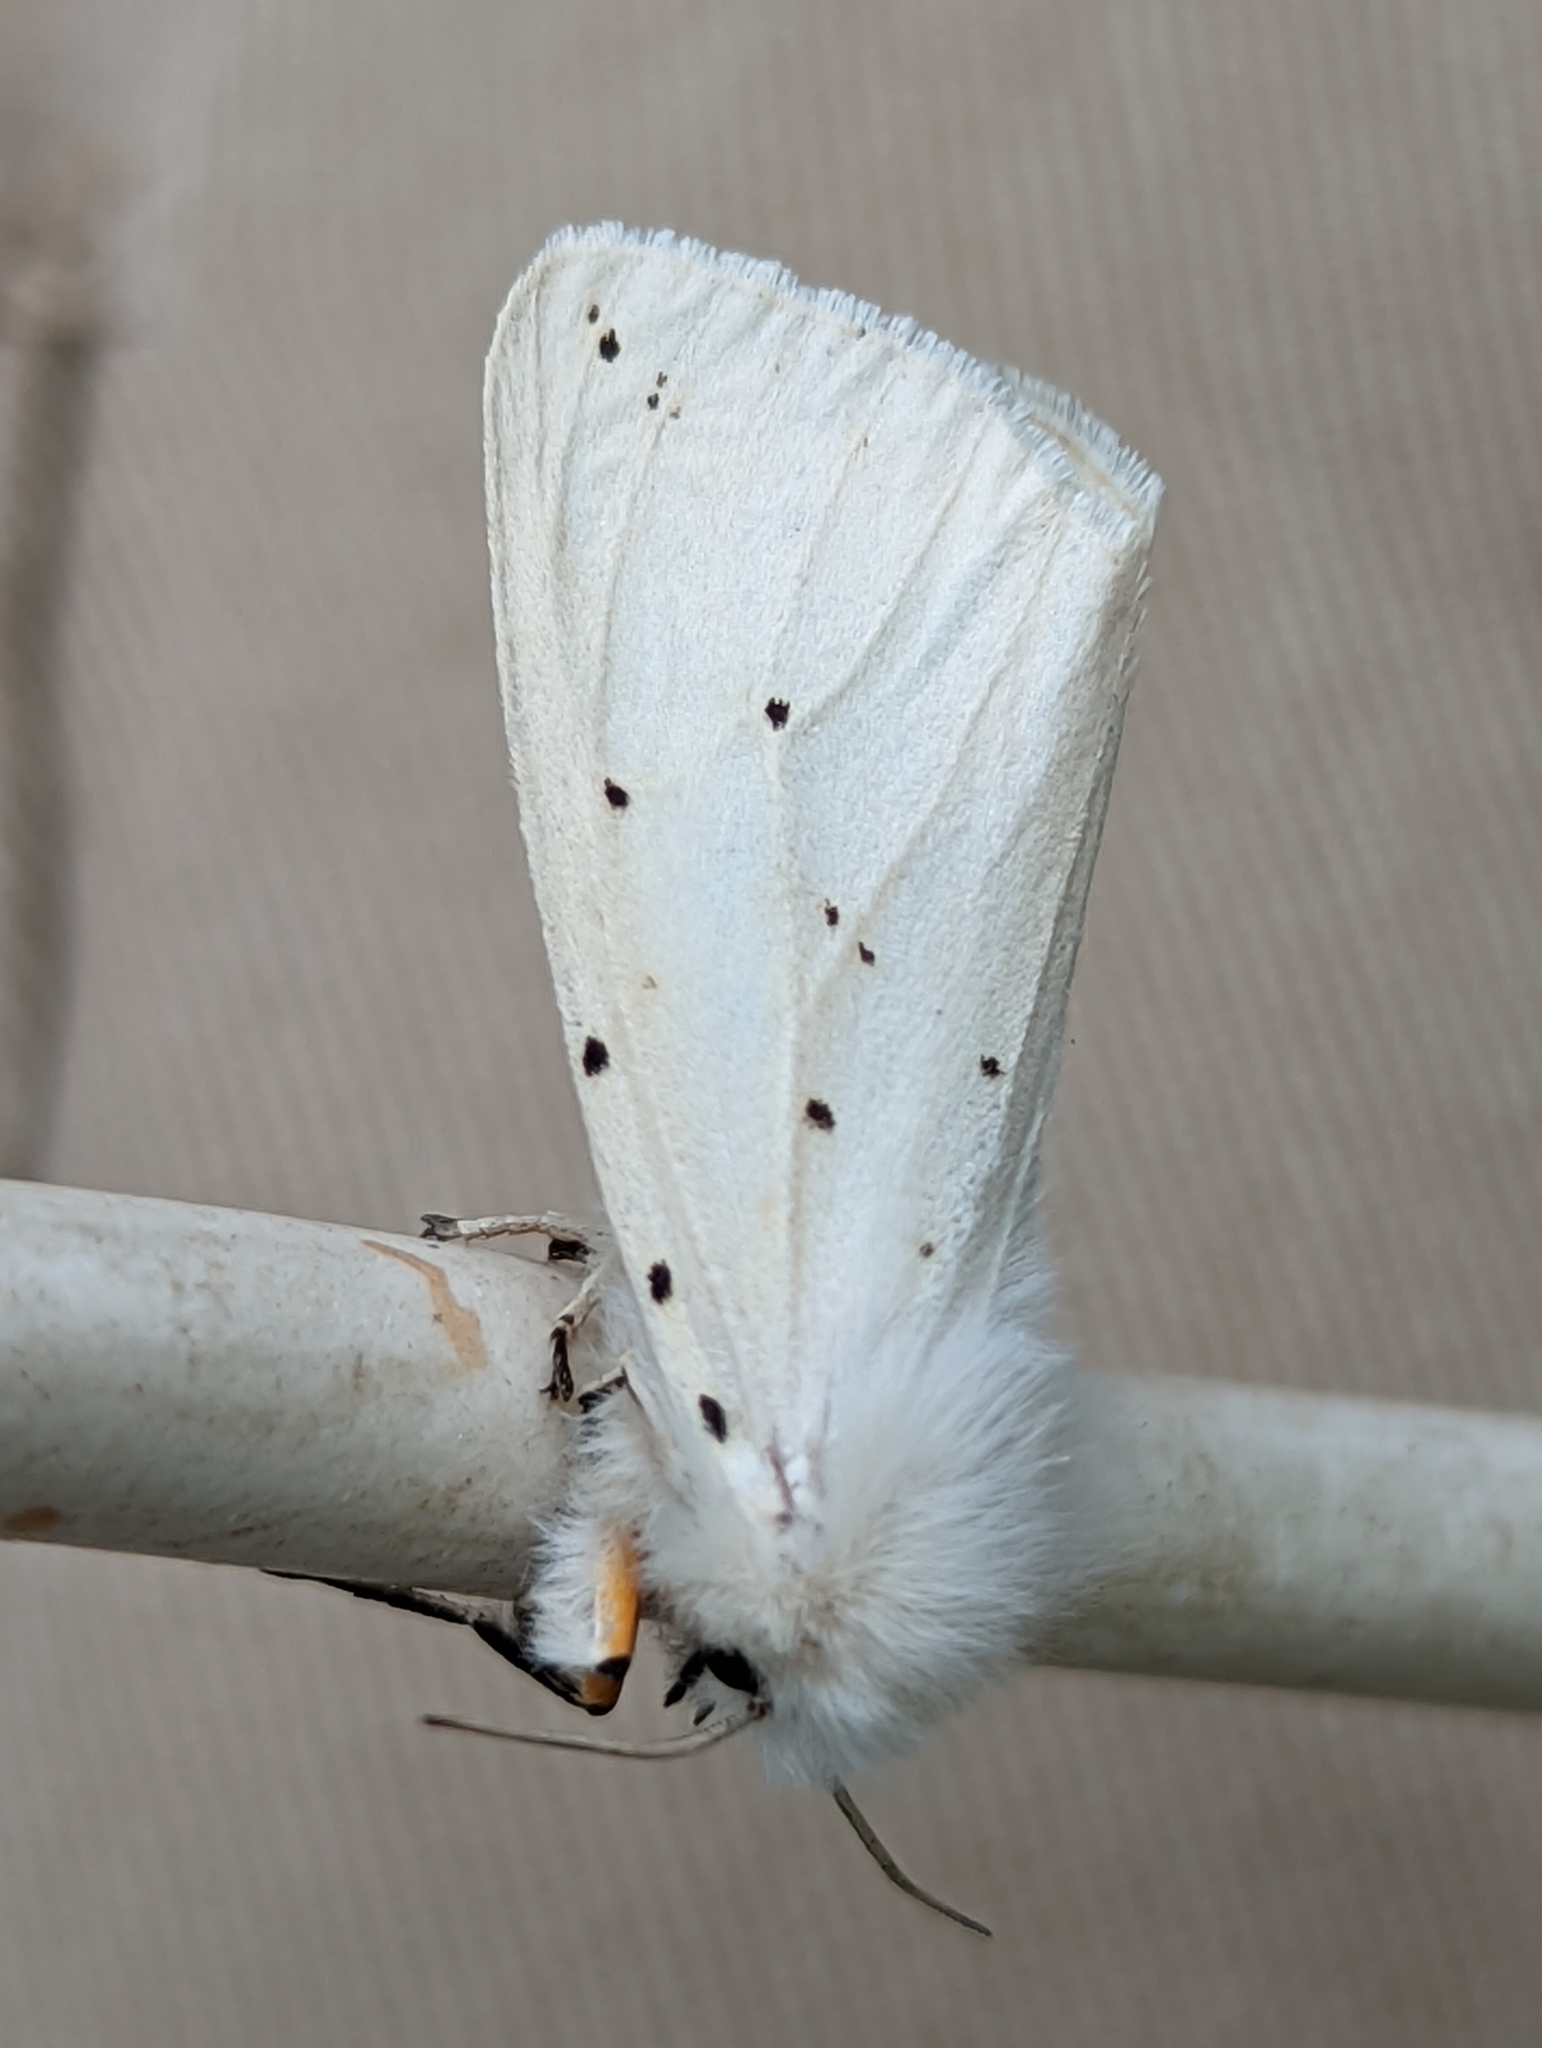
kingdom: Animalia
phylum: Arthropoda
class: Insecta
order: Lepidoptera
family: Erebidae
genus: Spilosoma
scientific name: Spilosoma lubricipeda
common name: White ermine
